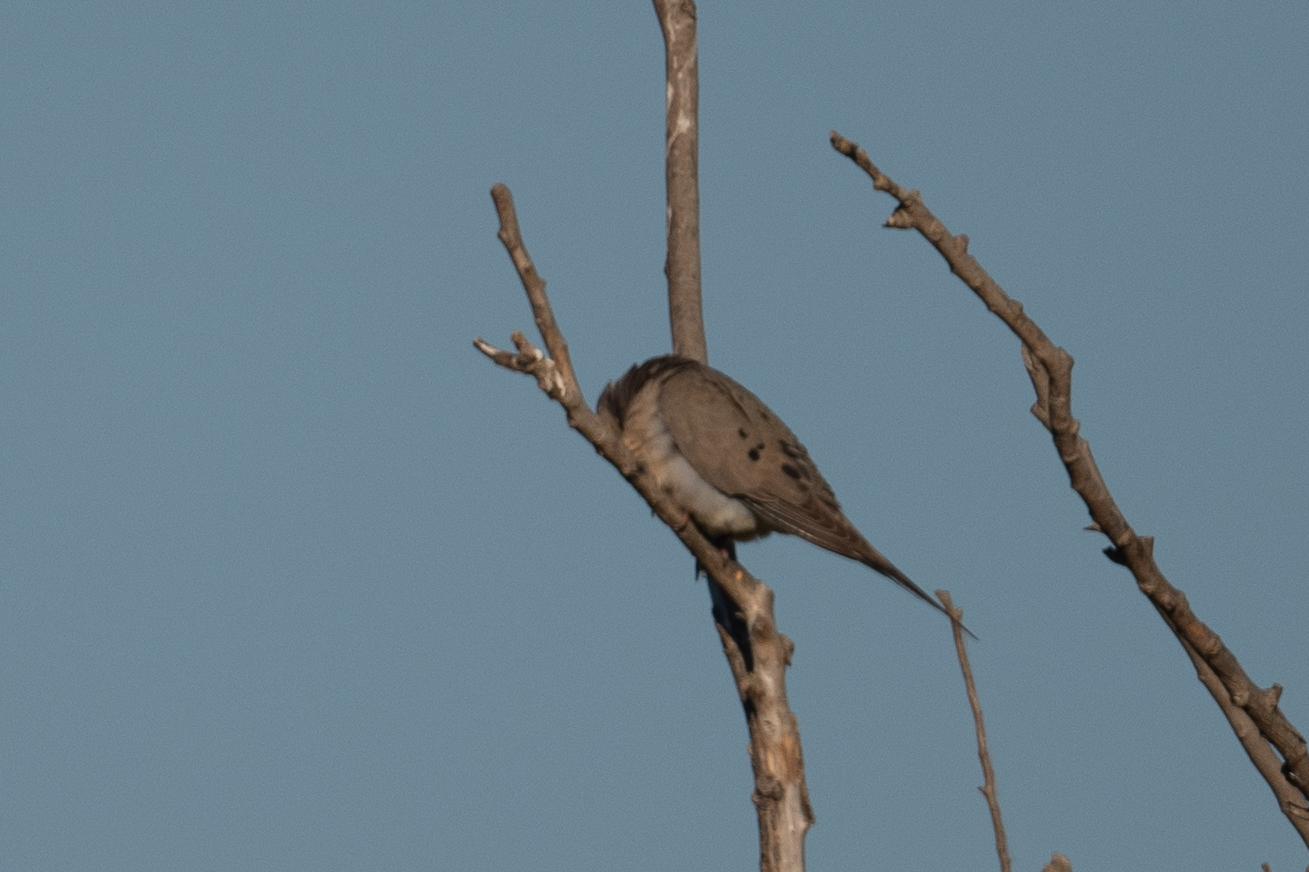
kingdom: Animalia
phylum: Chordata
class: Aves
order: Columbiformes
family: Columbidae
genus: Zenaida
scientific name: Zenaida macroura
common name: Mourning dove
